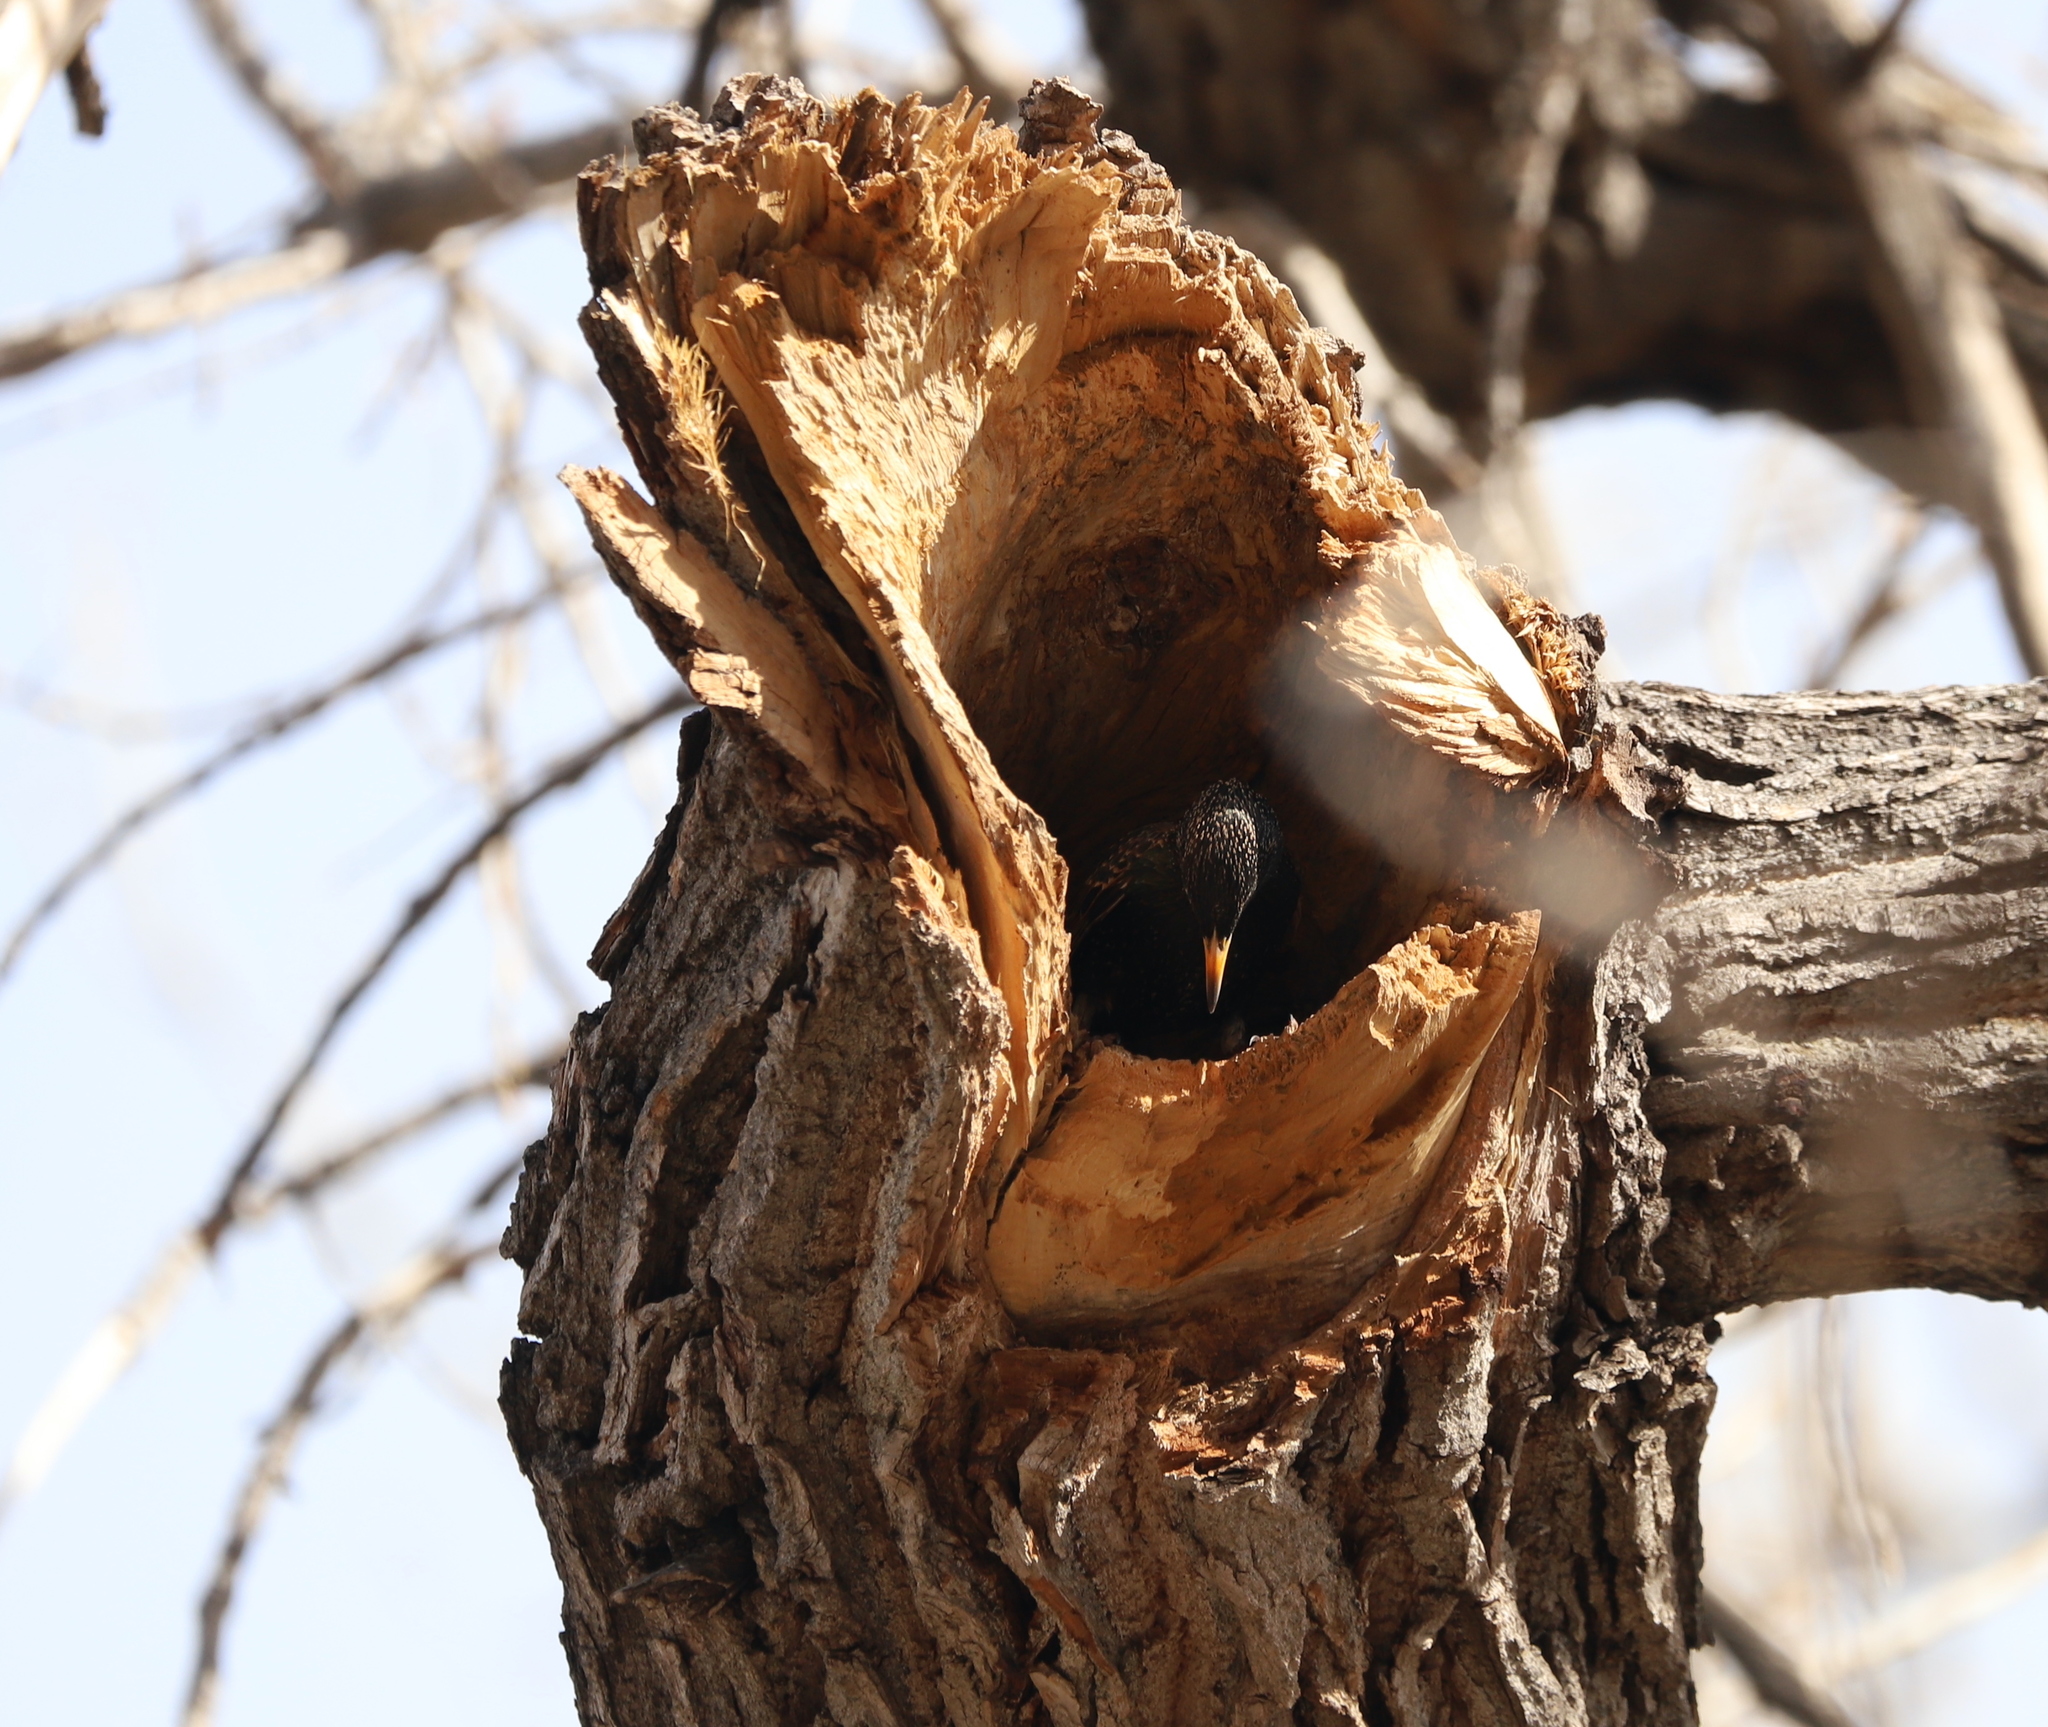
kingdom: Animalia
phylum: Chordata
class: Aves
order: Passeriformes
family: Sturnidae
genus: Sturnus
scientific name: Sturnus vulgaris
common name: Common starling
